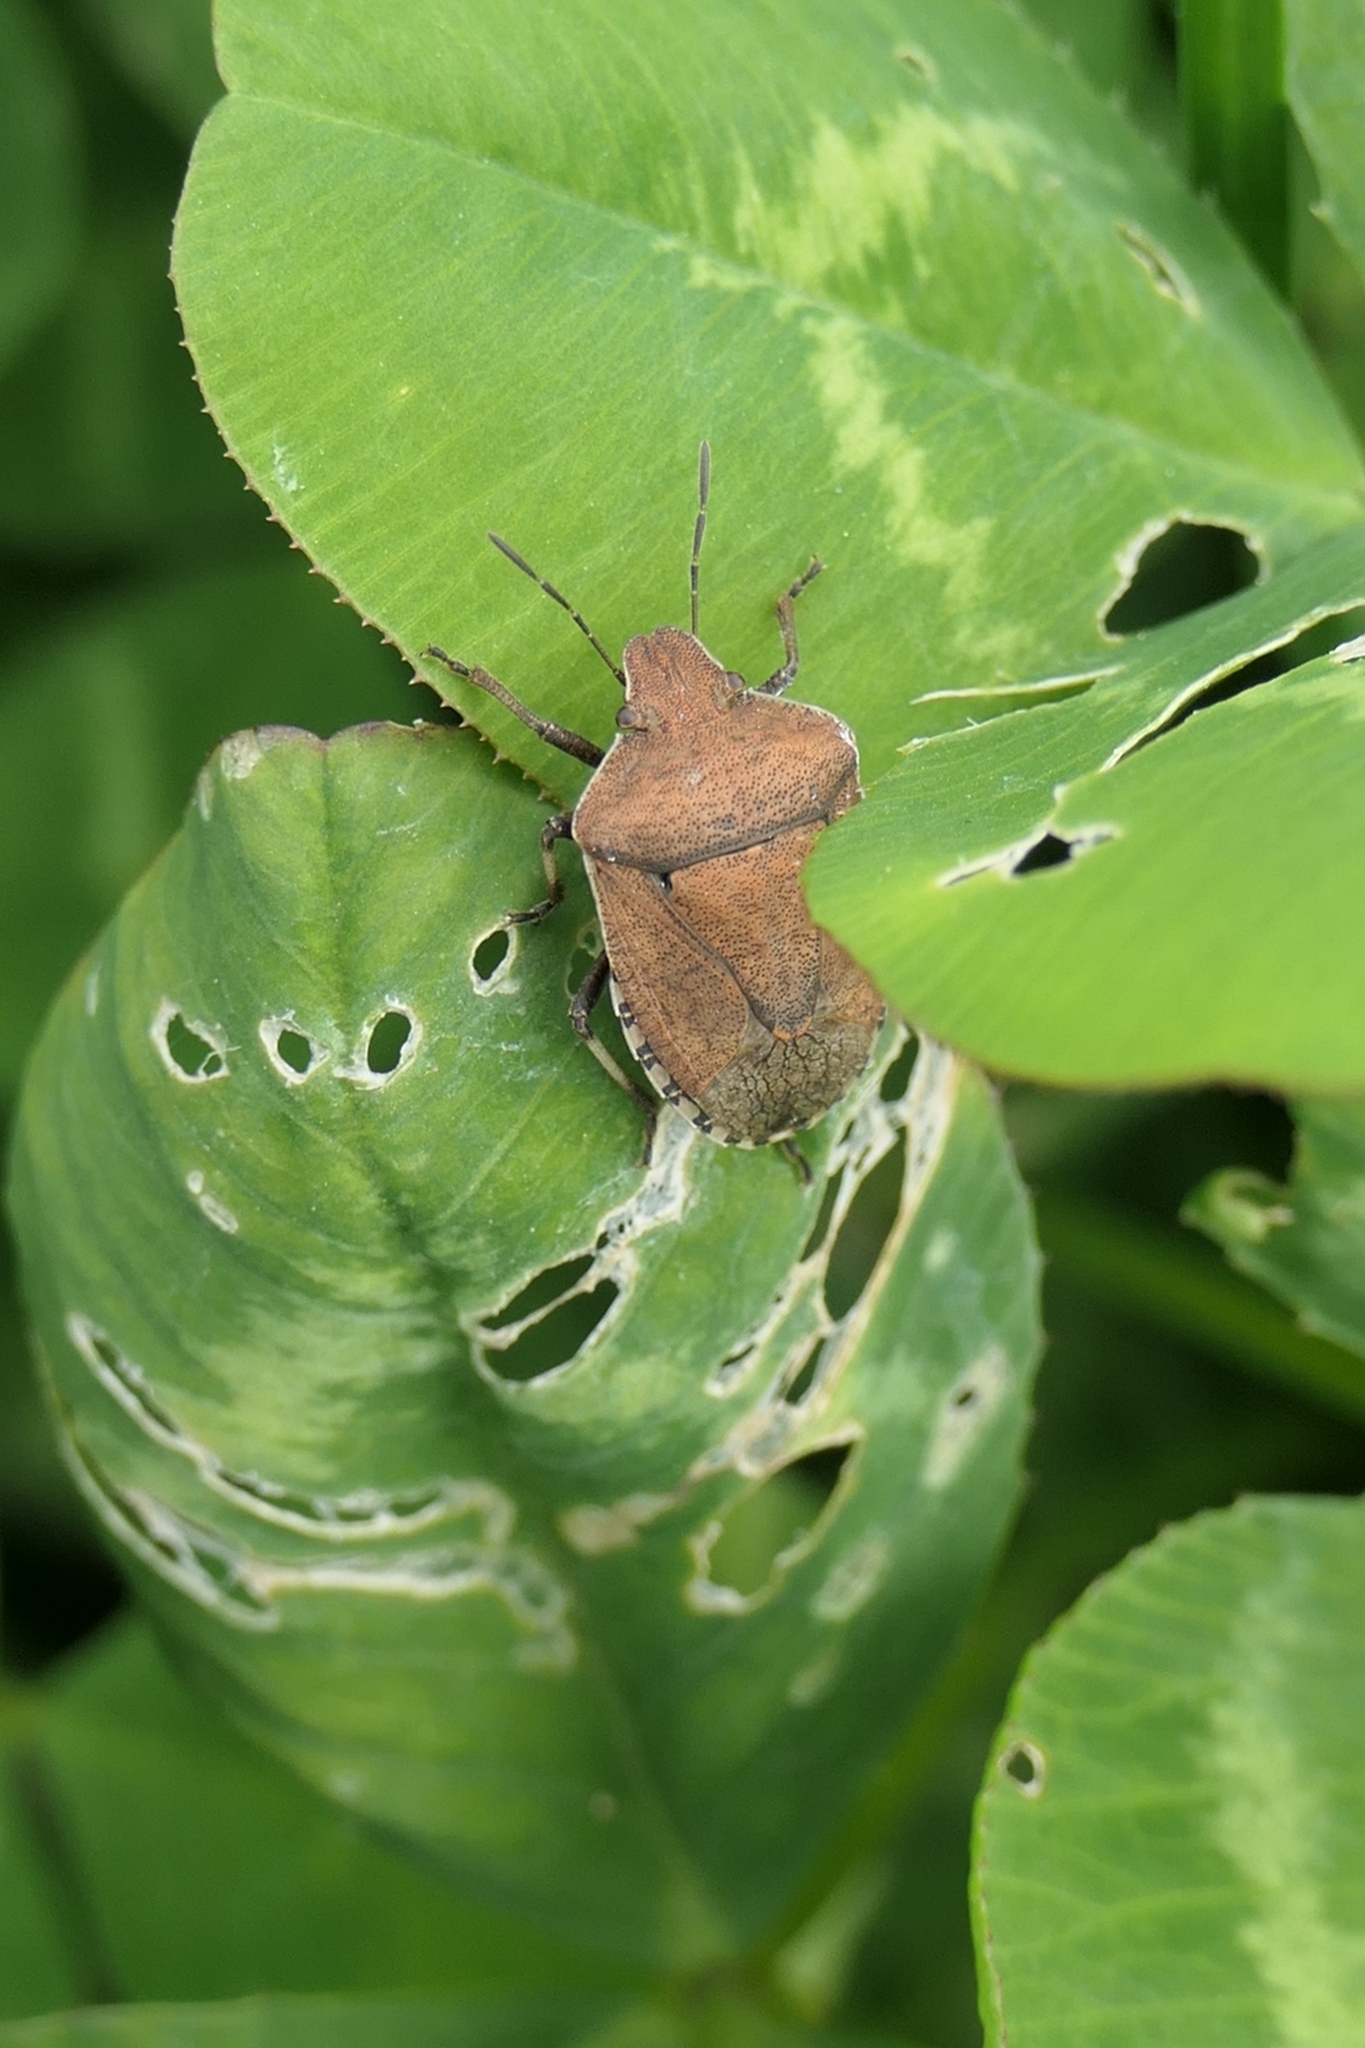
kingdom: Animalia
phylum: Arthropoda
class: Insecta
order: Hemiptera
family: Pentatomidae
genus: Dictyotus
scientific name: Dictyotus caenosus
